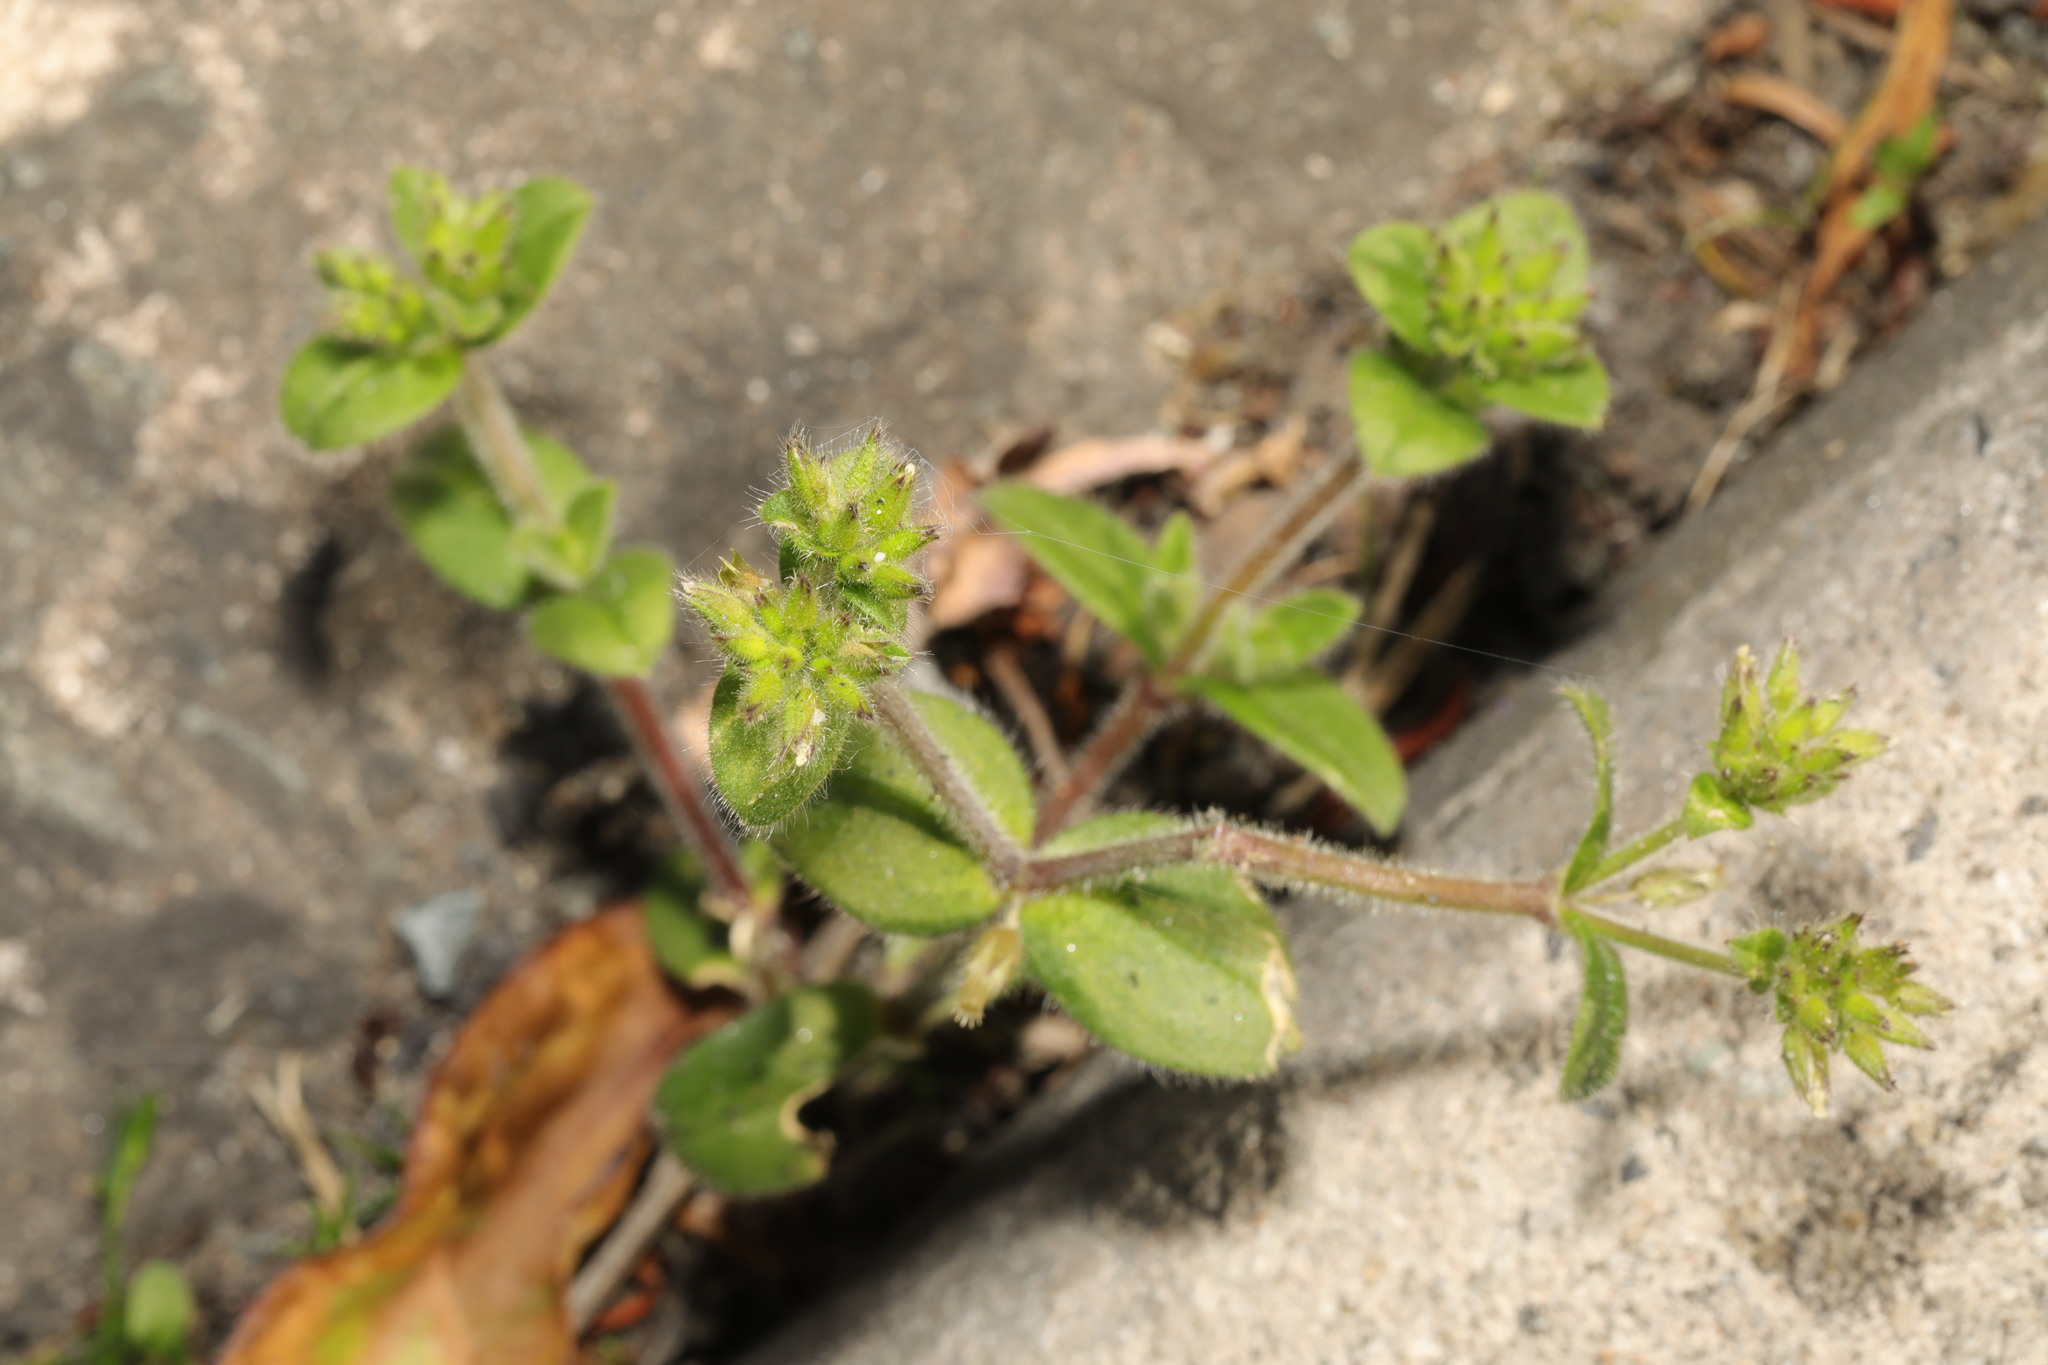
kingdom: Plantae
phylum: Tracheophyta
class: Magnoliopsida
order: Caryophyllales
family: Caryophyllaceae
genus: Cerastium
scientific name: Cerastium glomeratum
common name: Sticky chickweed
